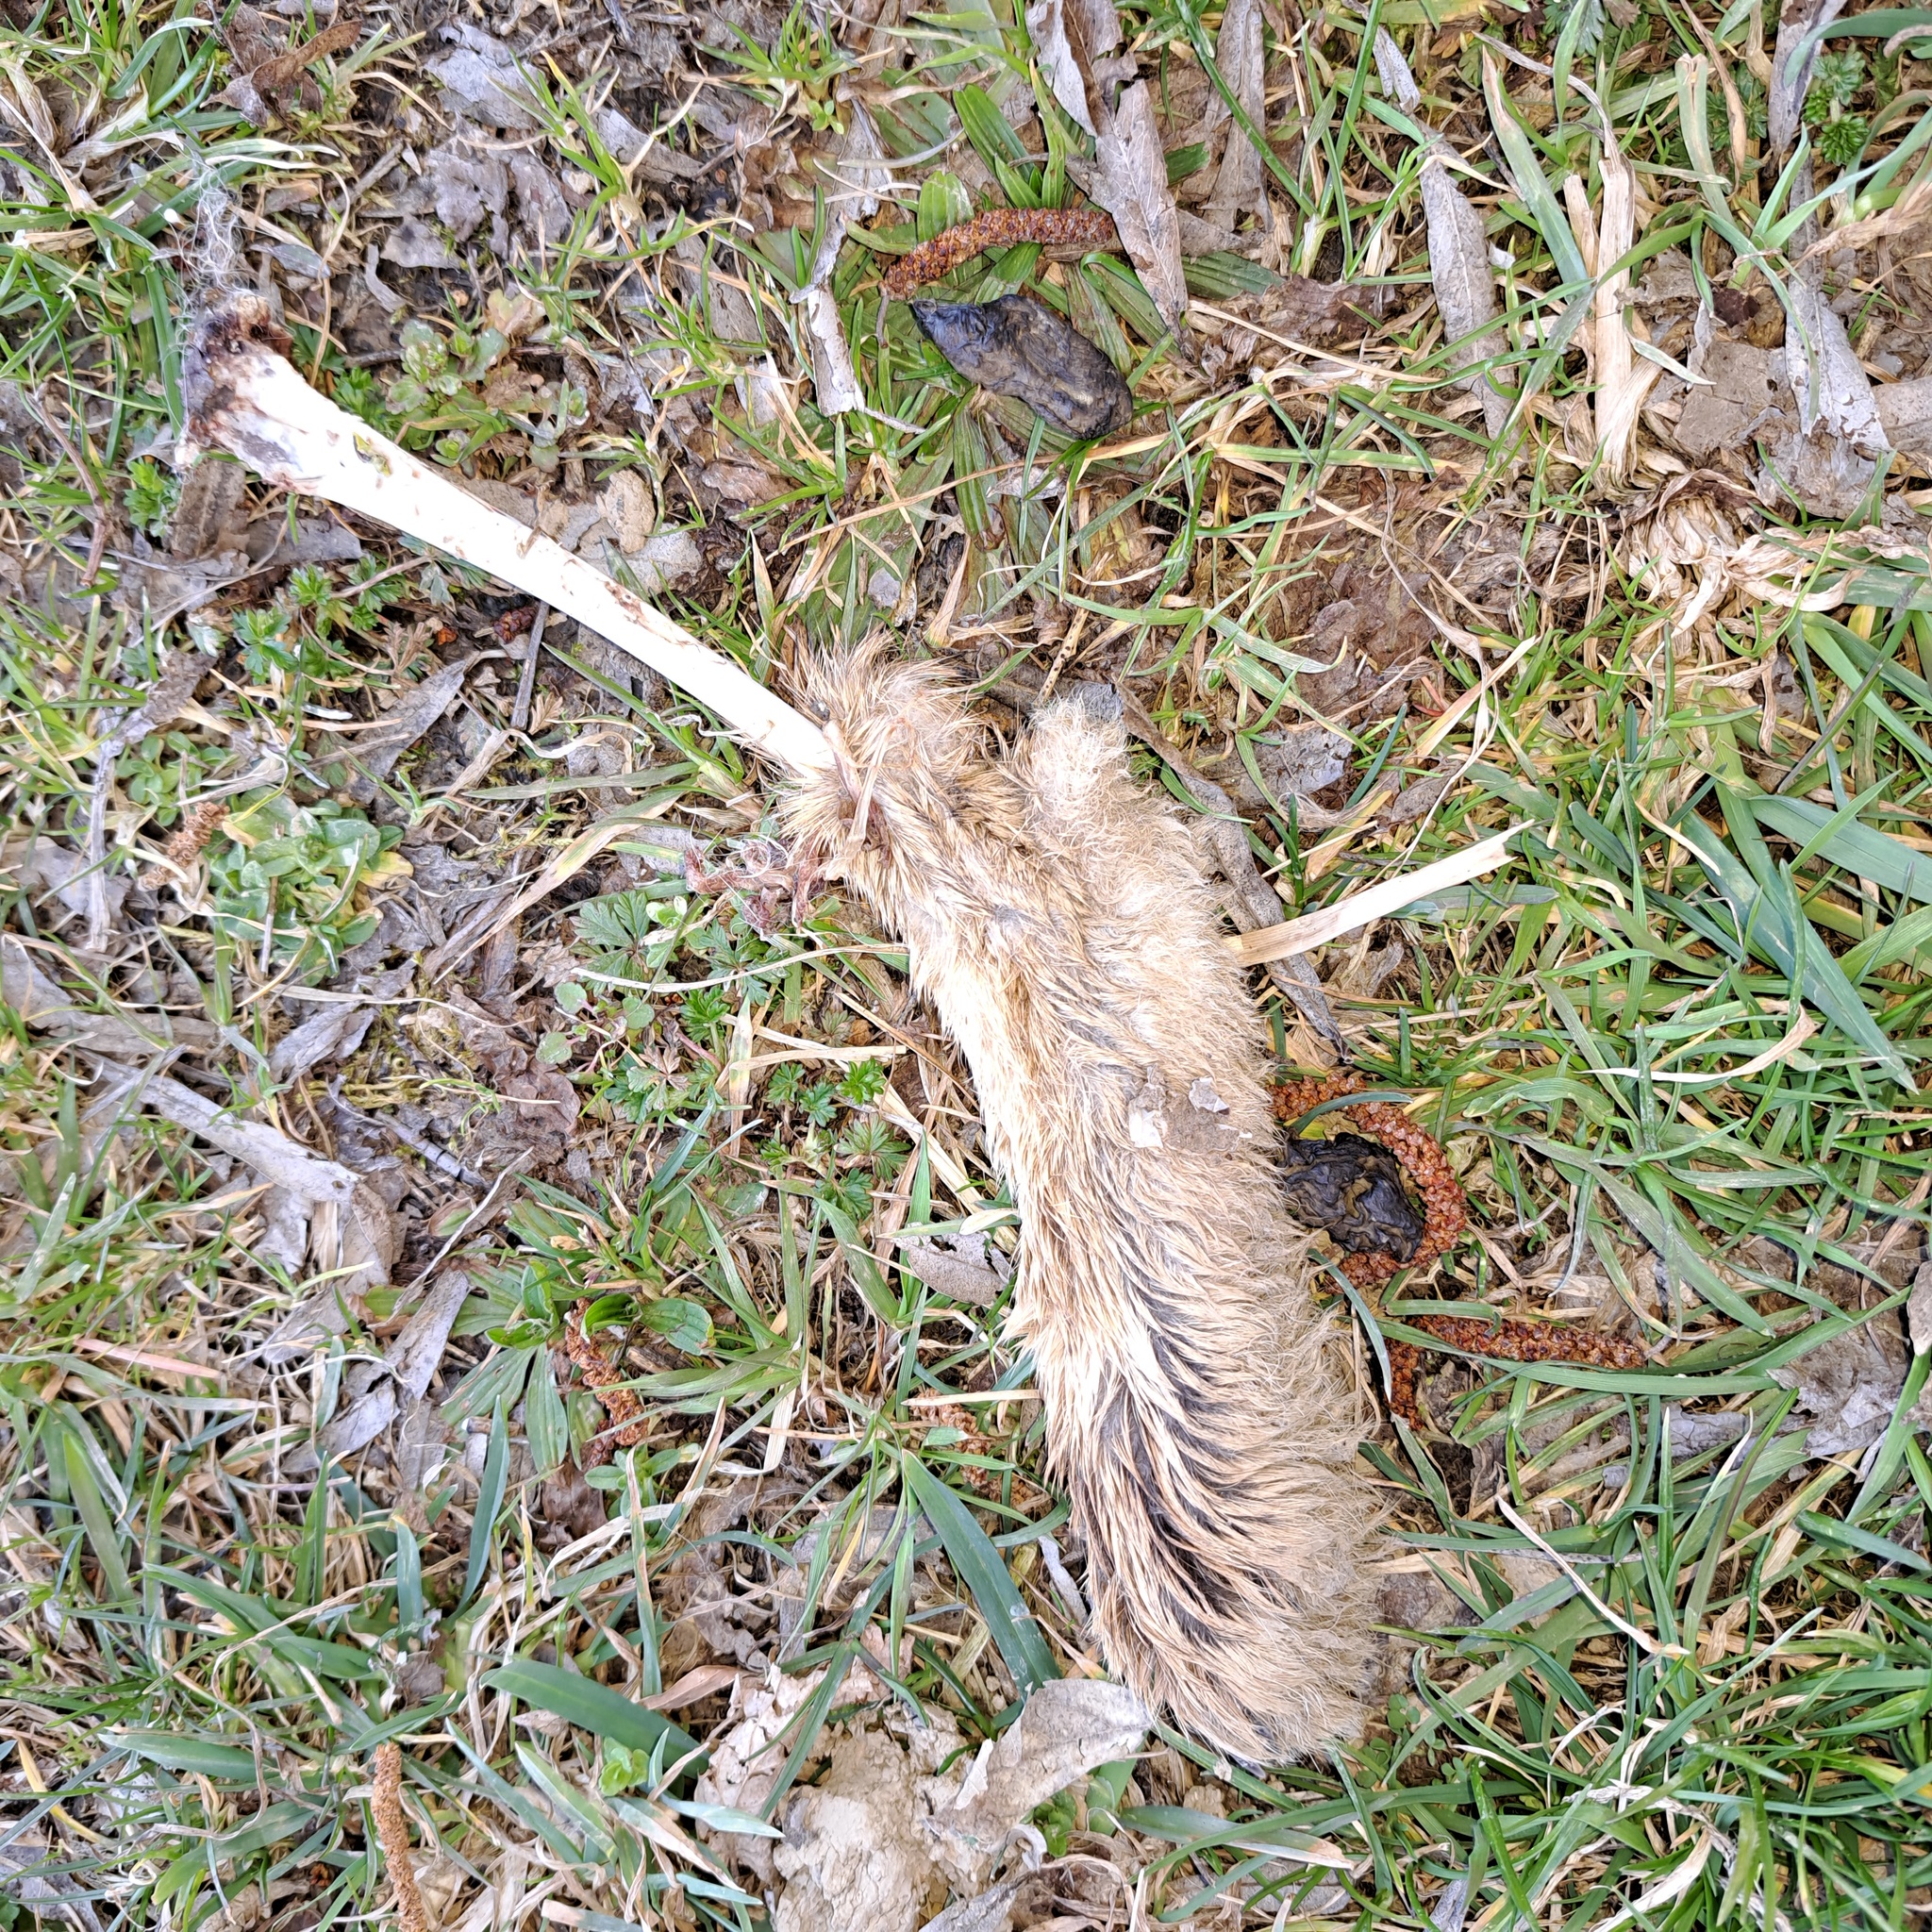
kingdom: Animalia
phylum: Chordata
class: Mammalia
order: Lagomorpha
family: Leporidae
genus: Lepus
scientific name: Lepus europaeus
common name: European hare
